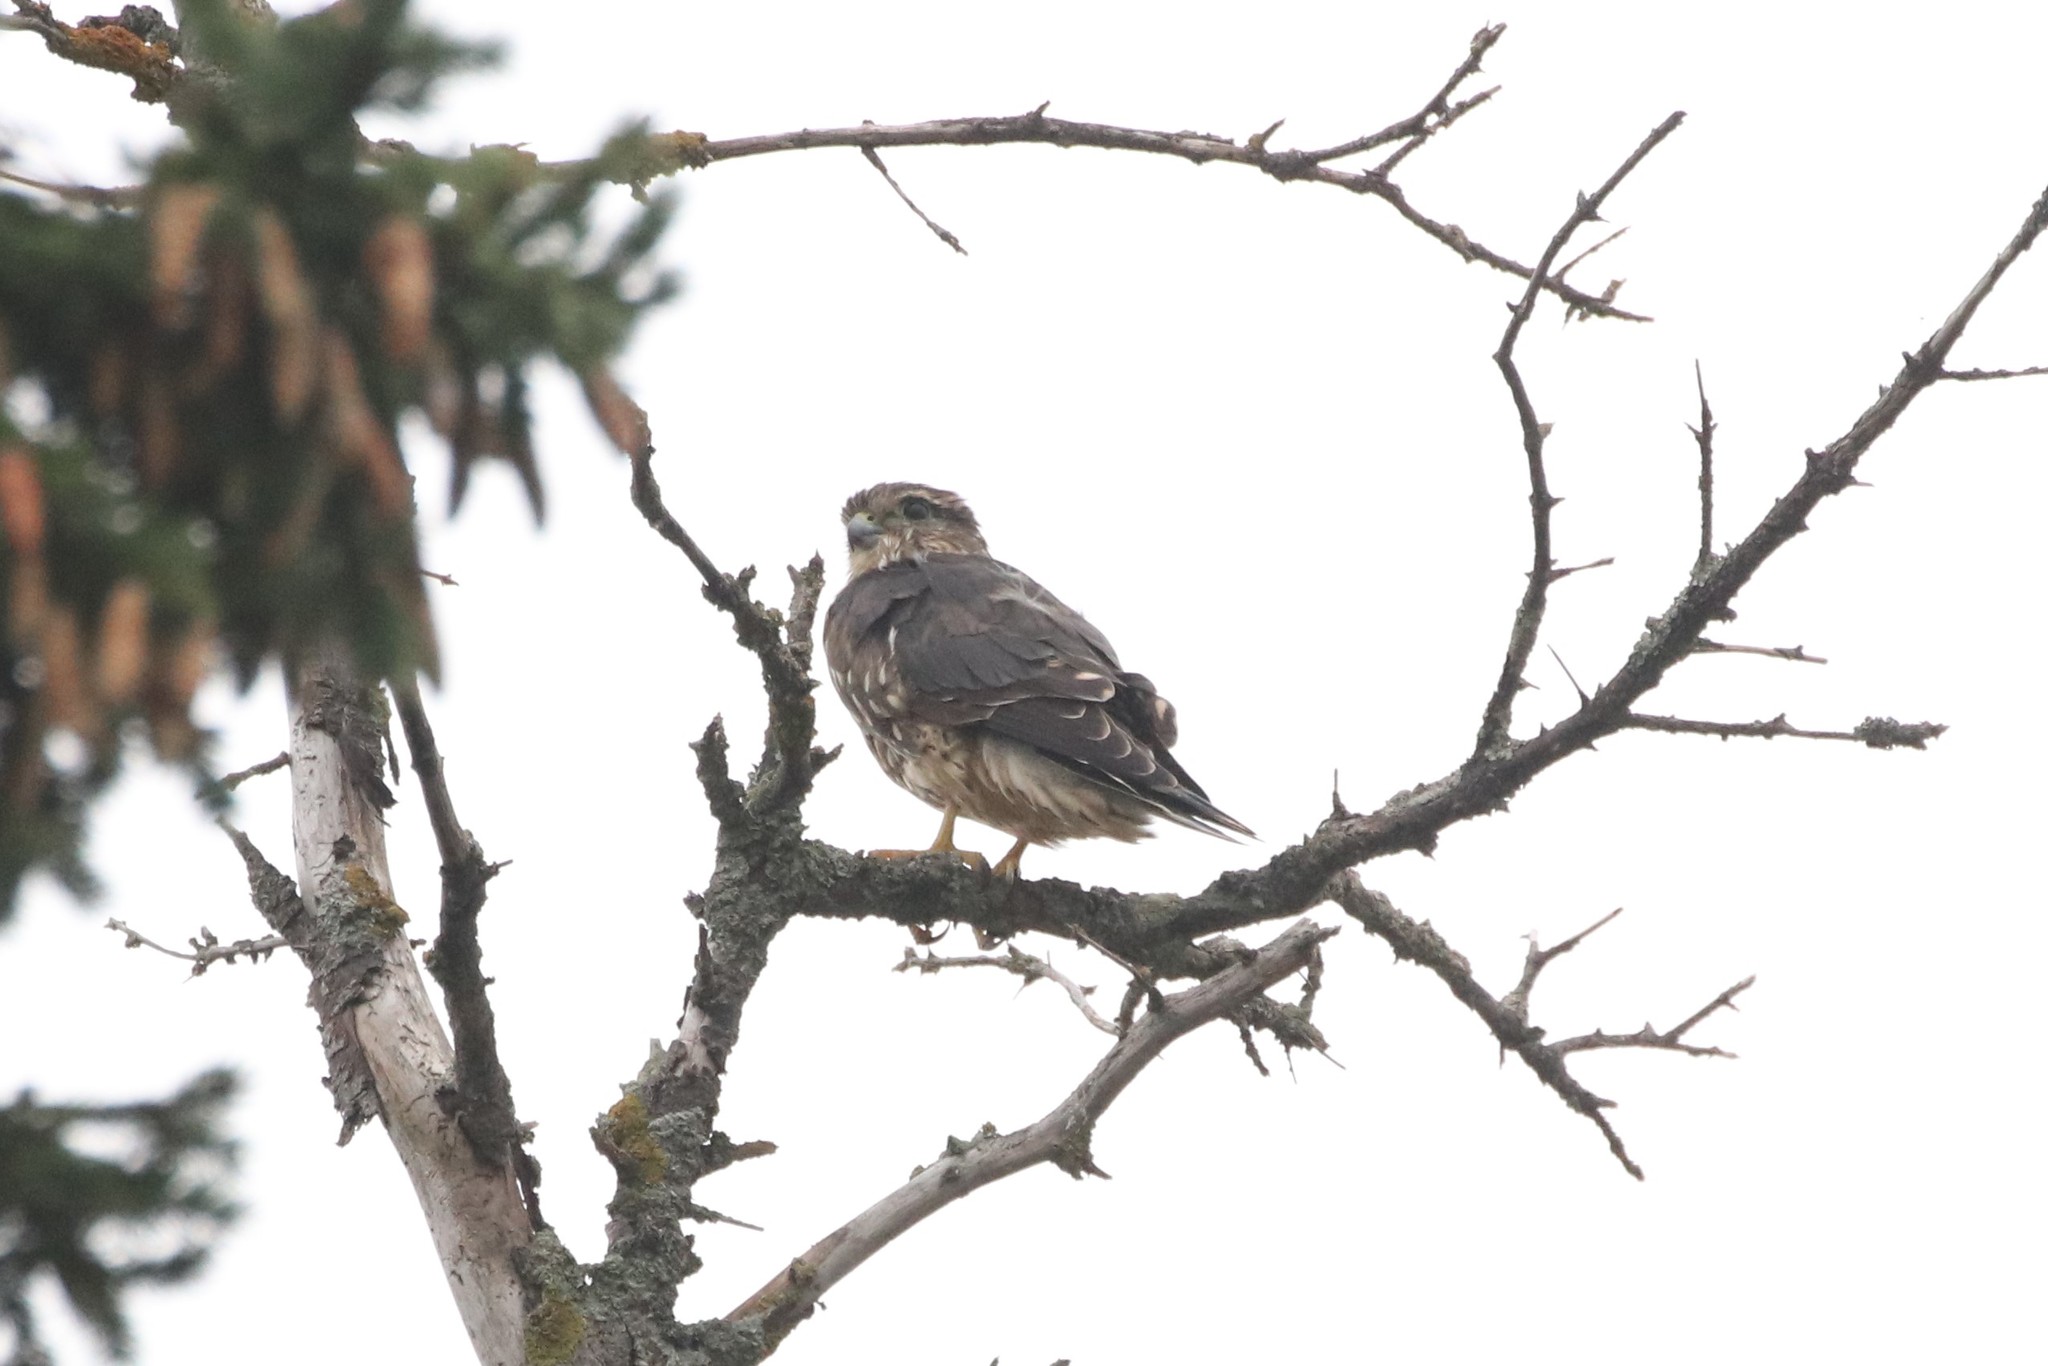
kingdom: Animalia
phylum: Chordata
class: Aves
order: Falconiformes
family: Falconidae
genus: Falco
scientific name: Falco columbarius
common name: Merlin
